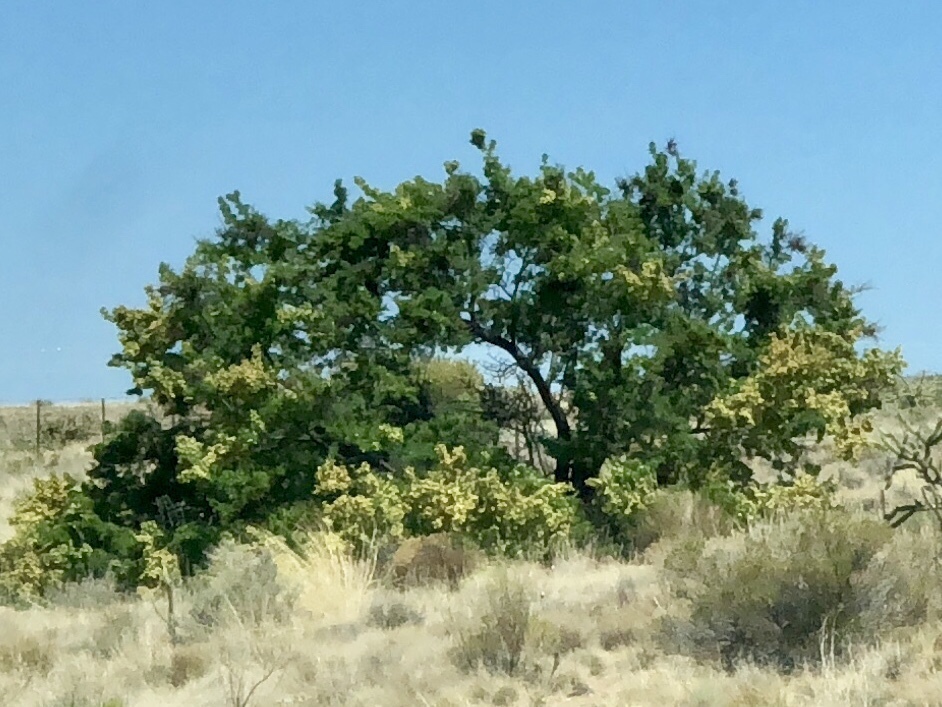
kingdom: Plantae
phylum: Tracheophyta
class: Magnoliopsida
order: Fabales
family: Fabaceae
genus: Senegalia
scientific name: Senegalia greggii
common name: Texas-mimosa
